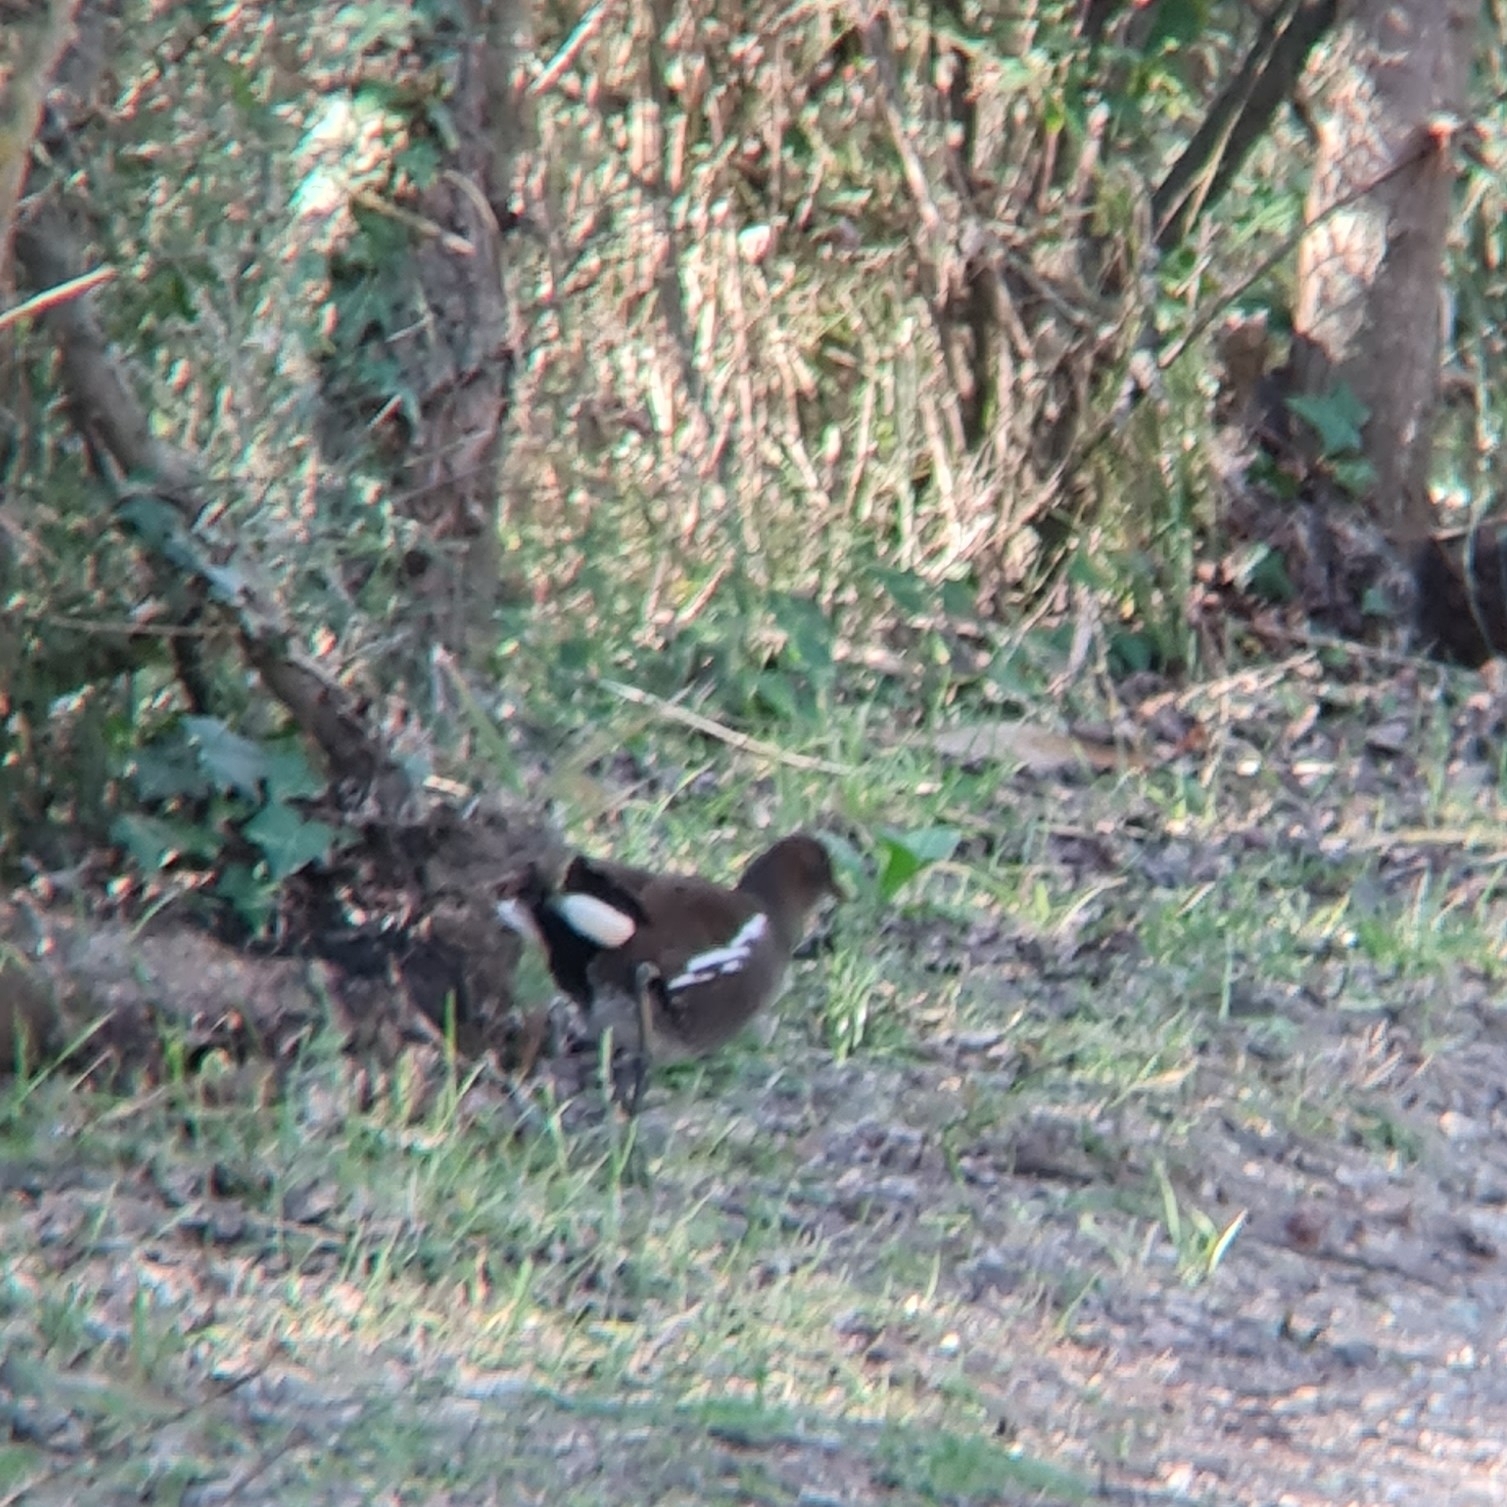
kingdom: Animalia
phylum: Chordata
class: Aves
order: Gruiformes
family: Rallidae
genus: Gallinula
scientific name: Gallinula chloropus
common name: Common moorhen
